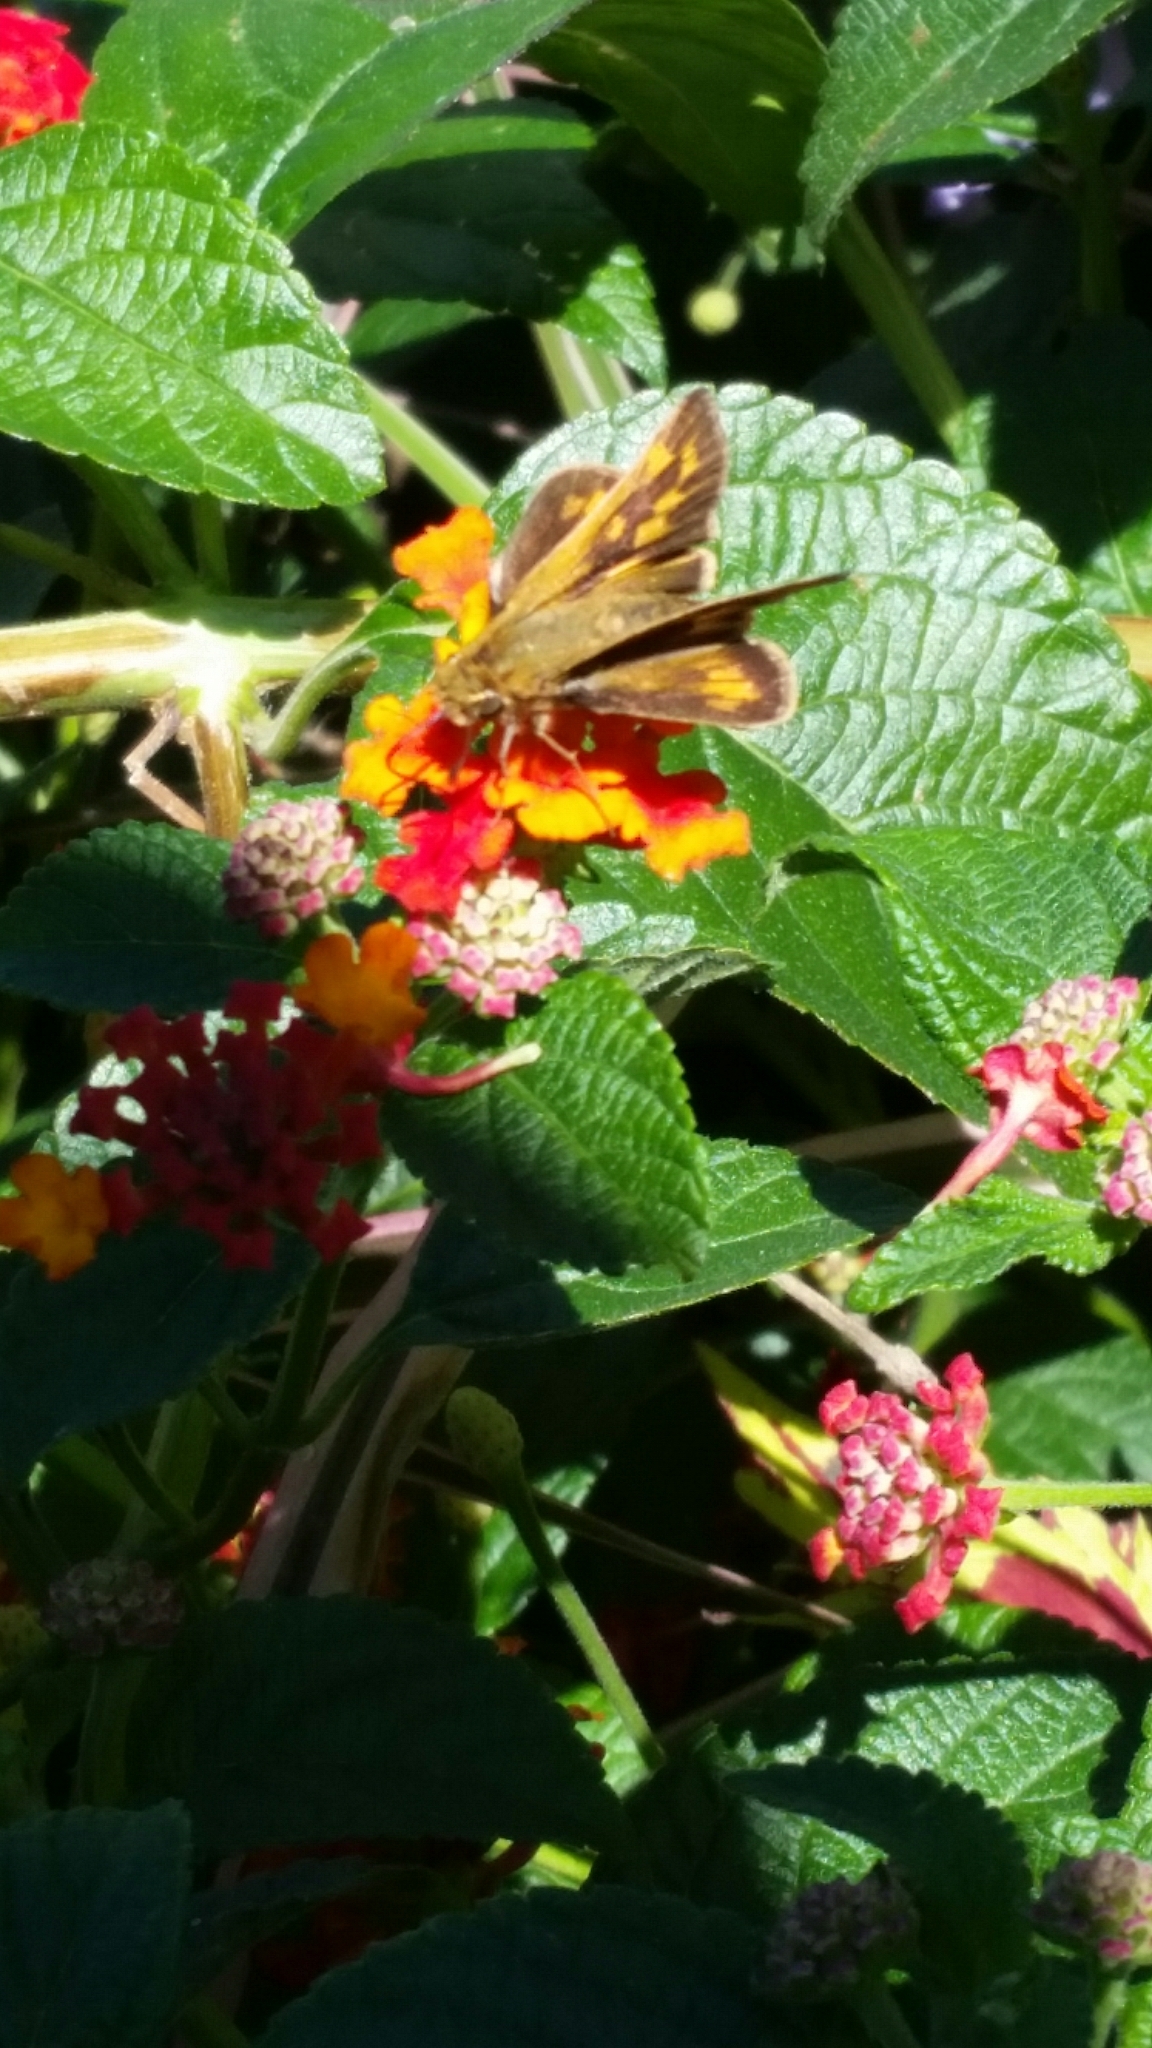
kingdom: Animalia
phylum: Arthropoda
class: Insecta
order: Lepidoptera
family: Hesperiidae
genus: Hylephila
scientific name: Hylephila phyleus
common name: Fiery skipper
